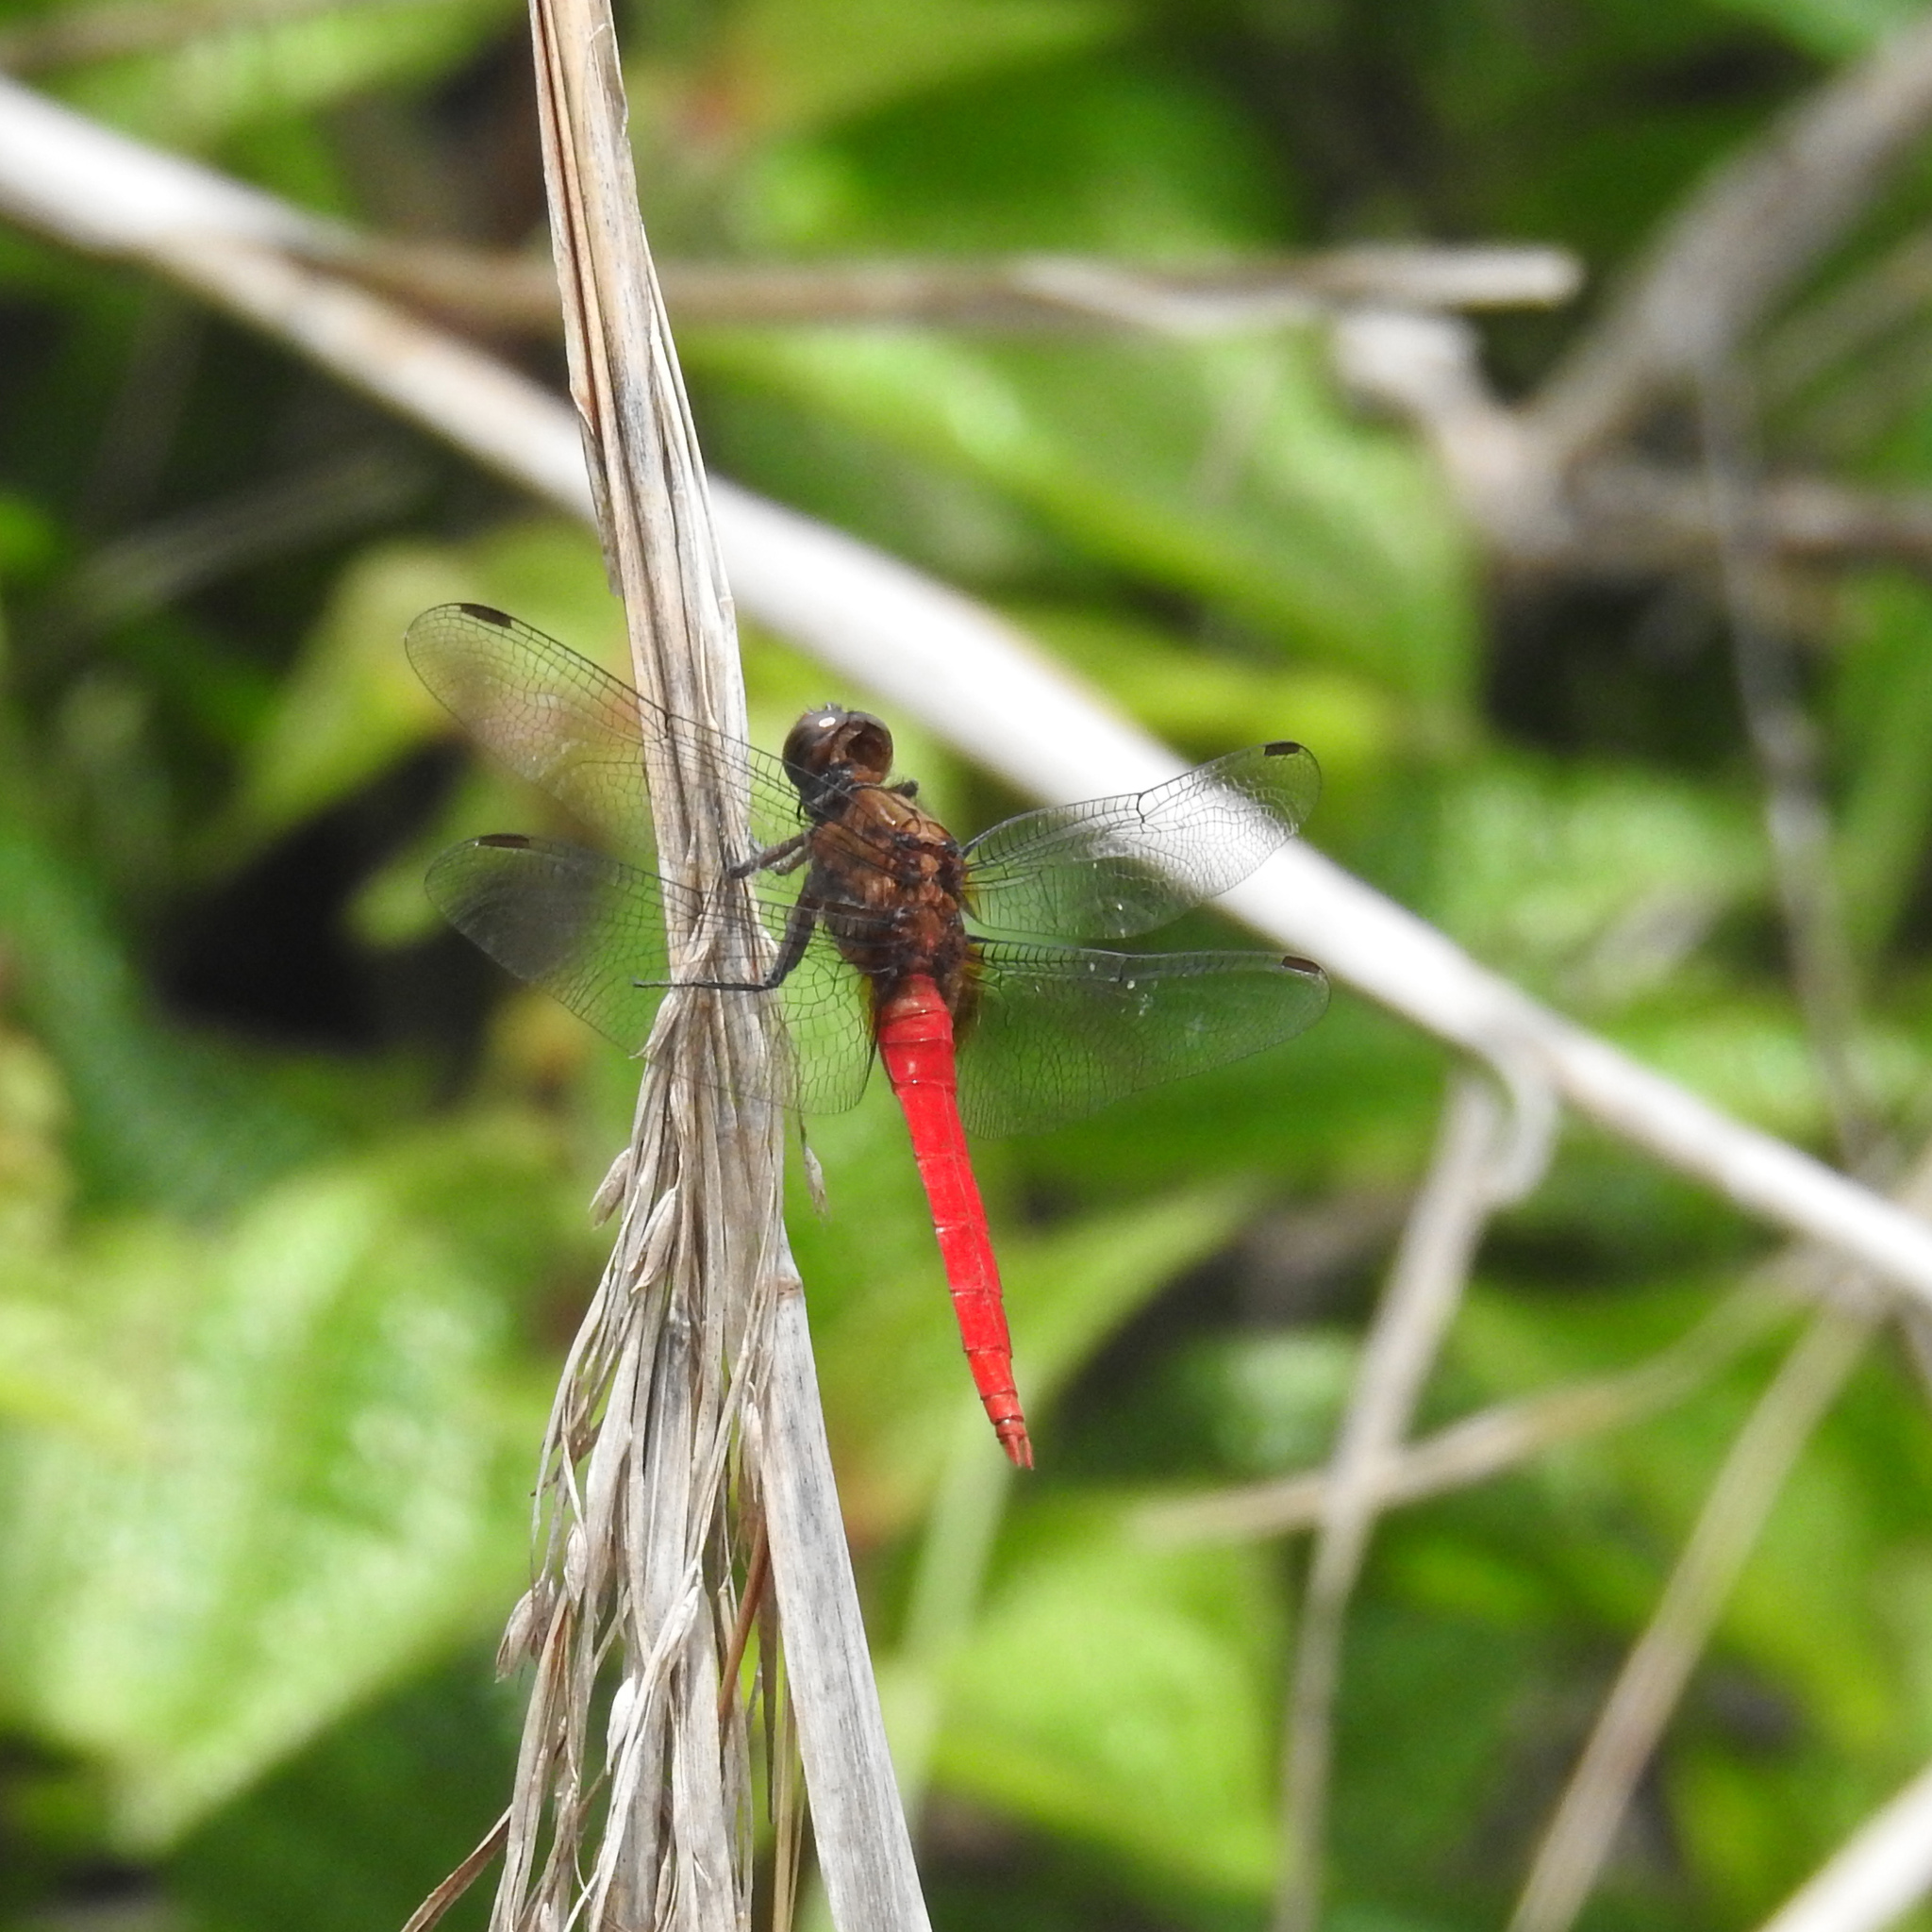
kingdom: Animalia
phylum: Arthropoda
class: Insecta
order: Odonata
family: Libellulidae
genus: Orthetrum
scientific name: Orthetrum chrysis
